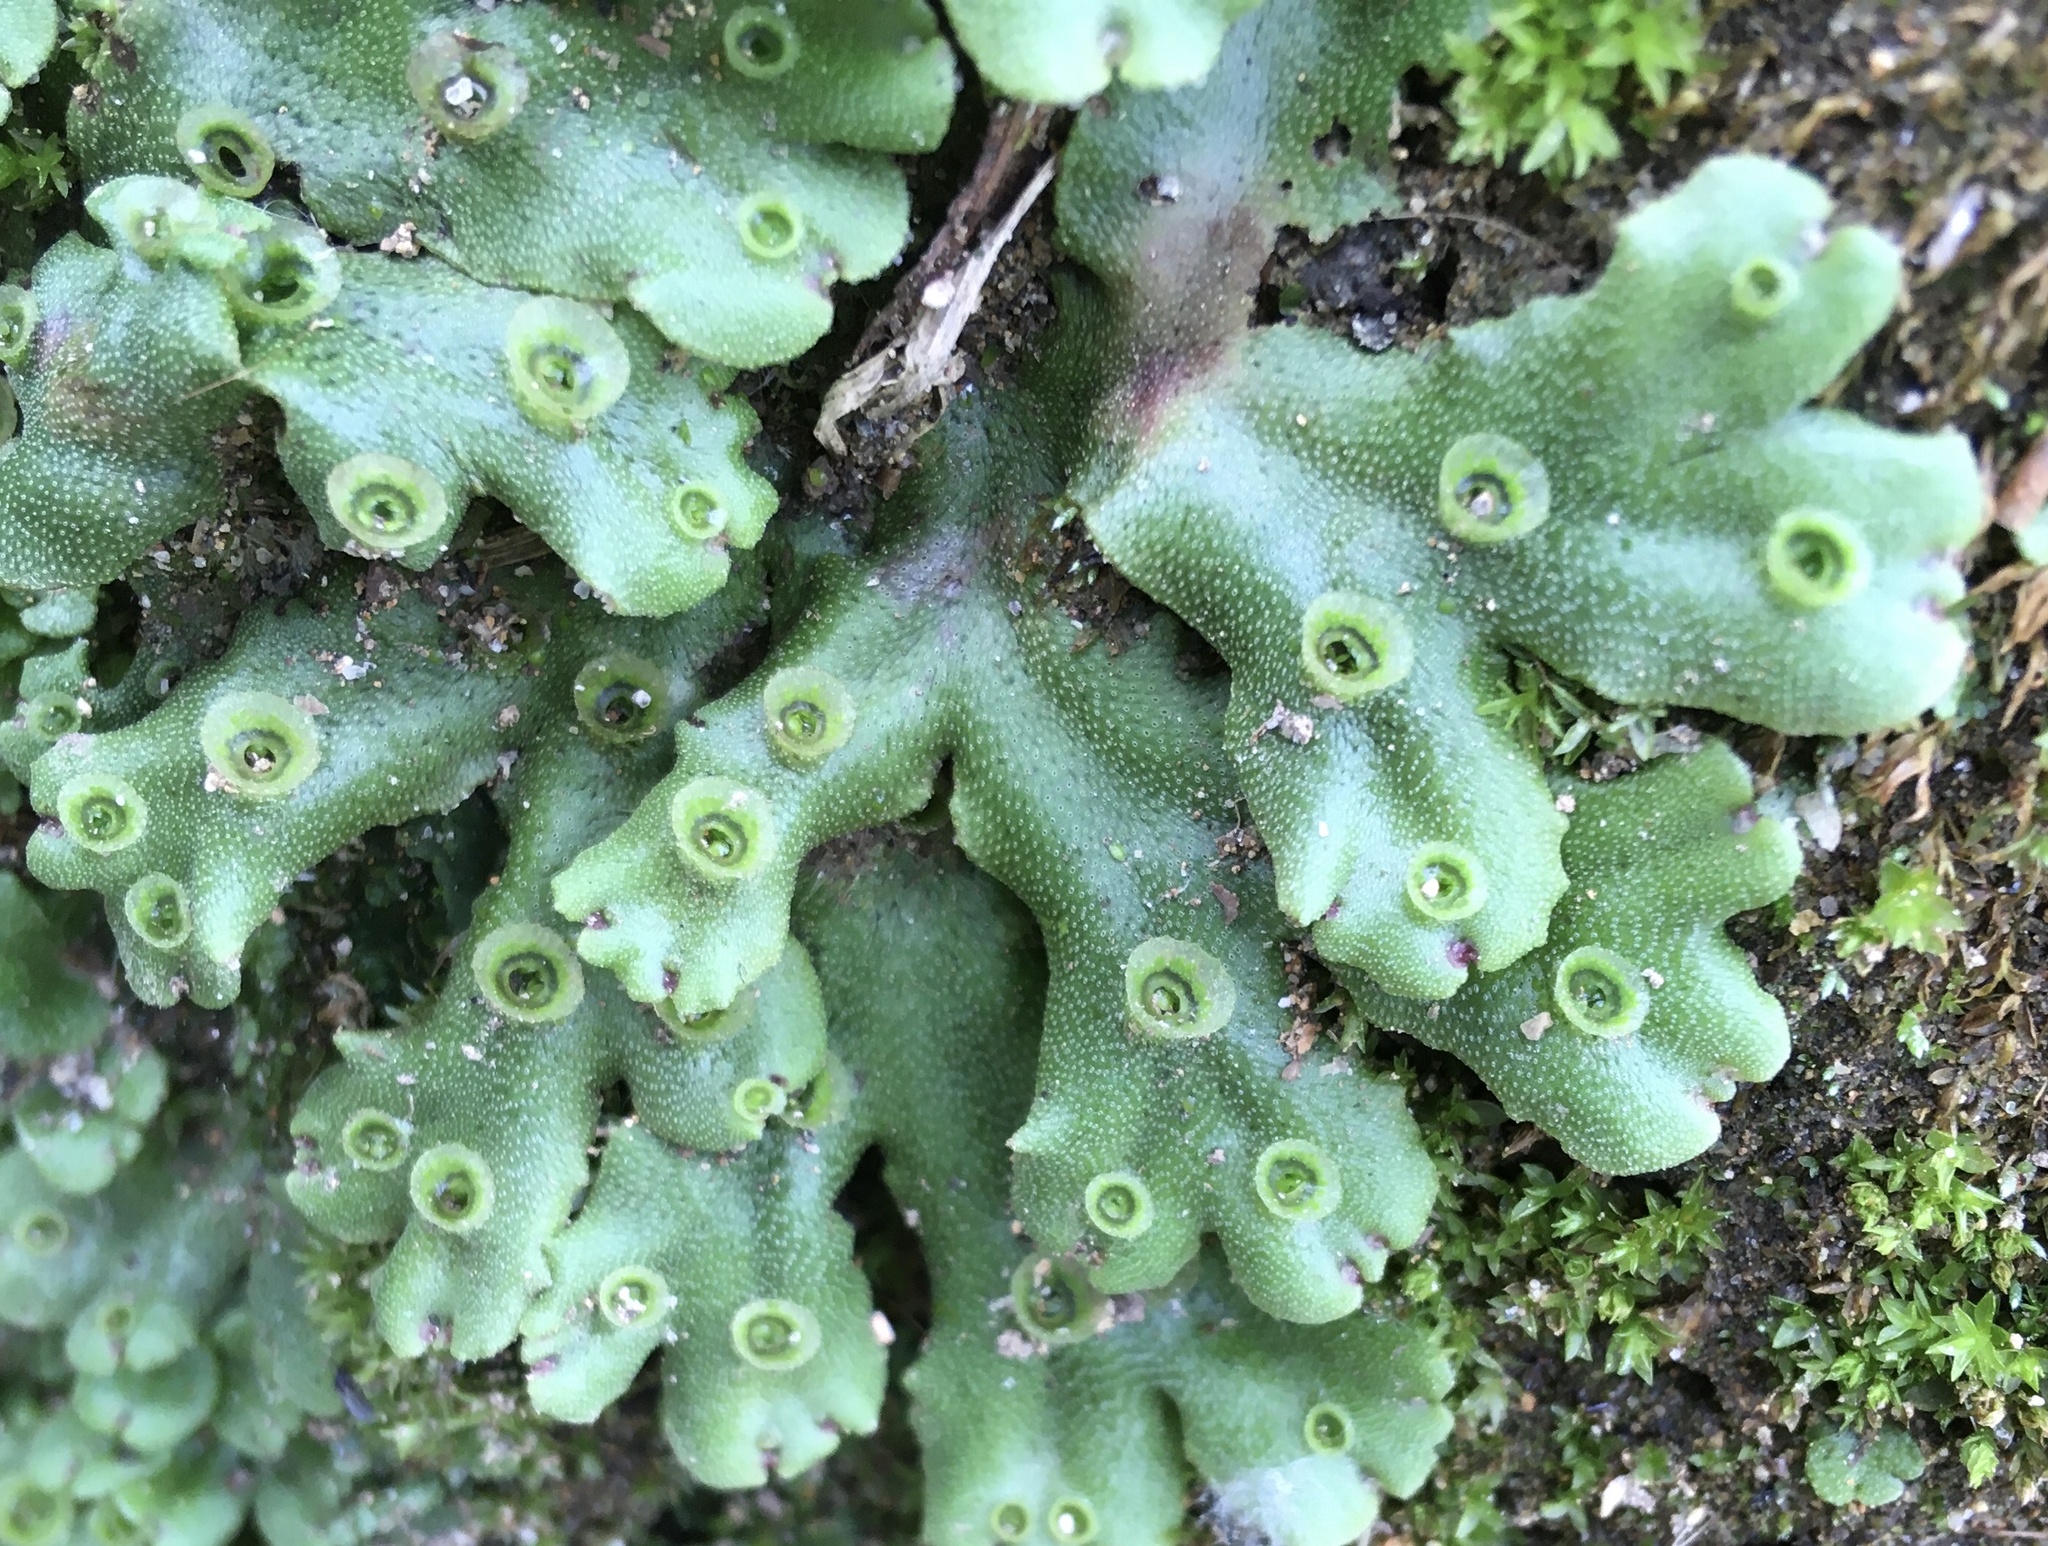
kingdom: Plantae
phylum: Marchantiophyta
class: Marchantiopsida
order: Marchantiales
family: Marchantiaceae
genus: Marchantia
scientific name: Marchantia polymorpha
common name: Common liverwort
